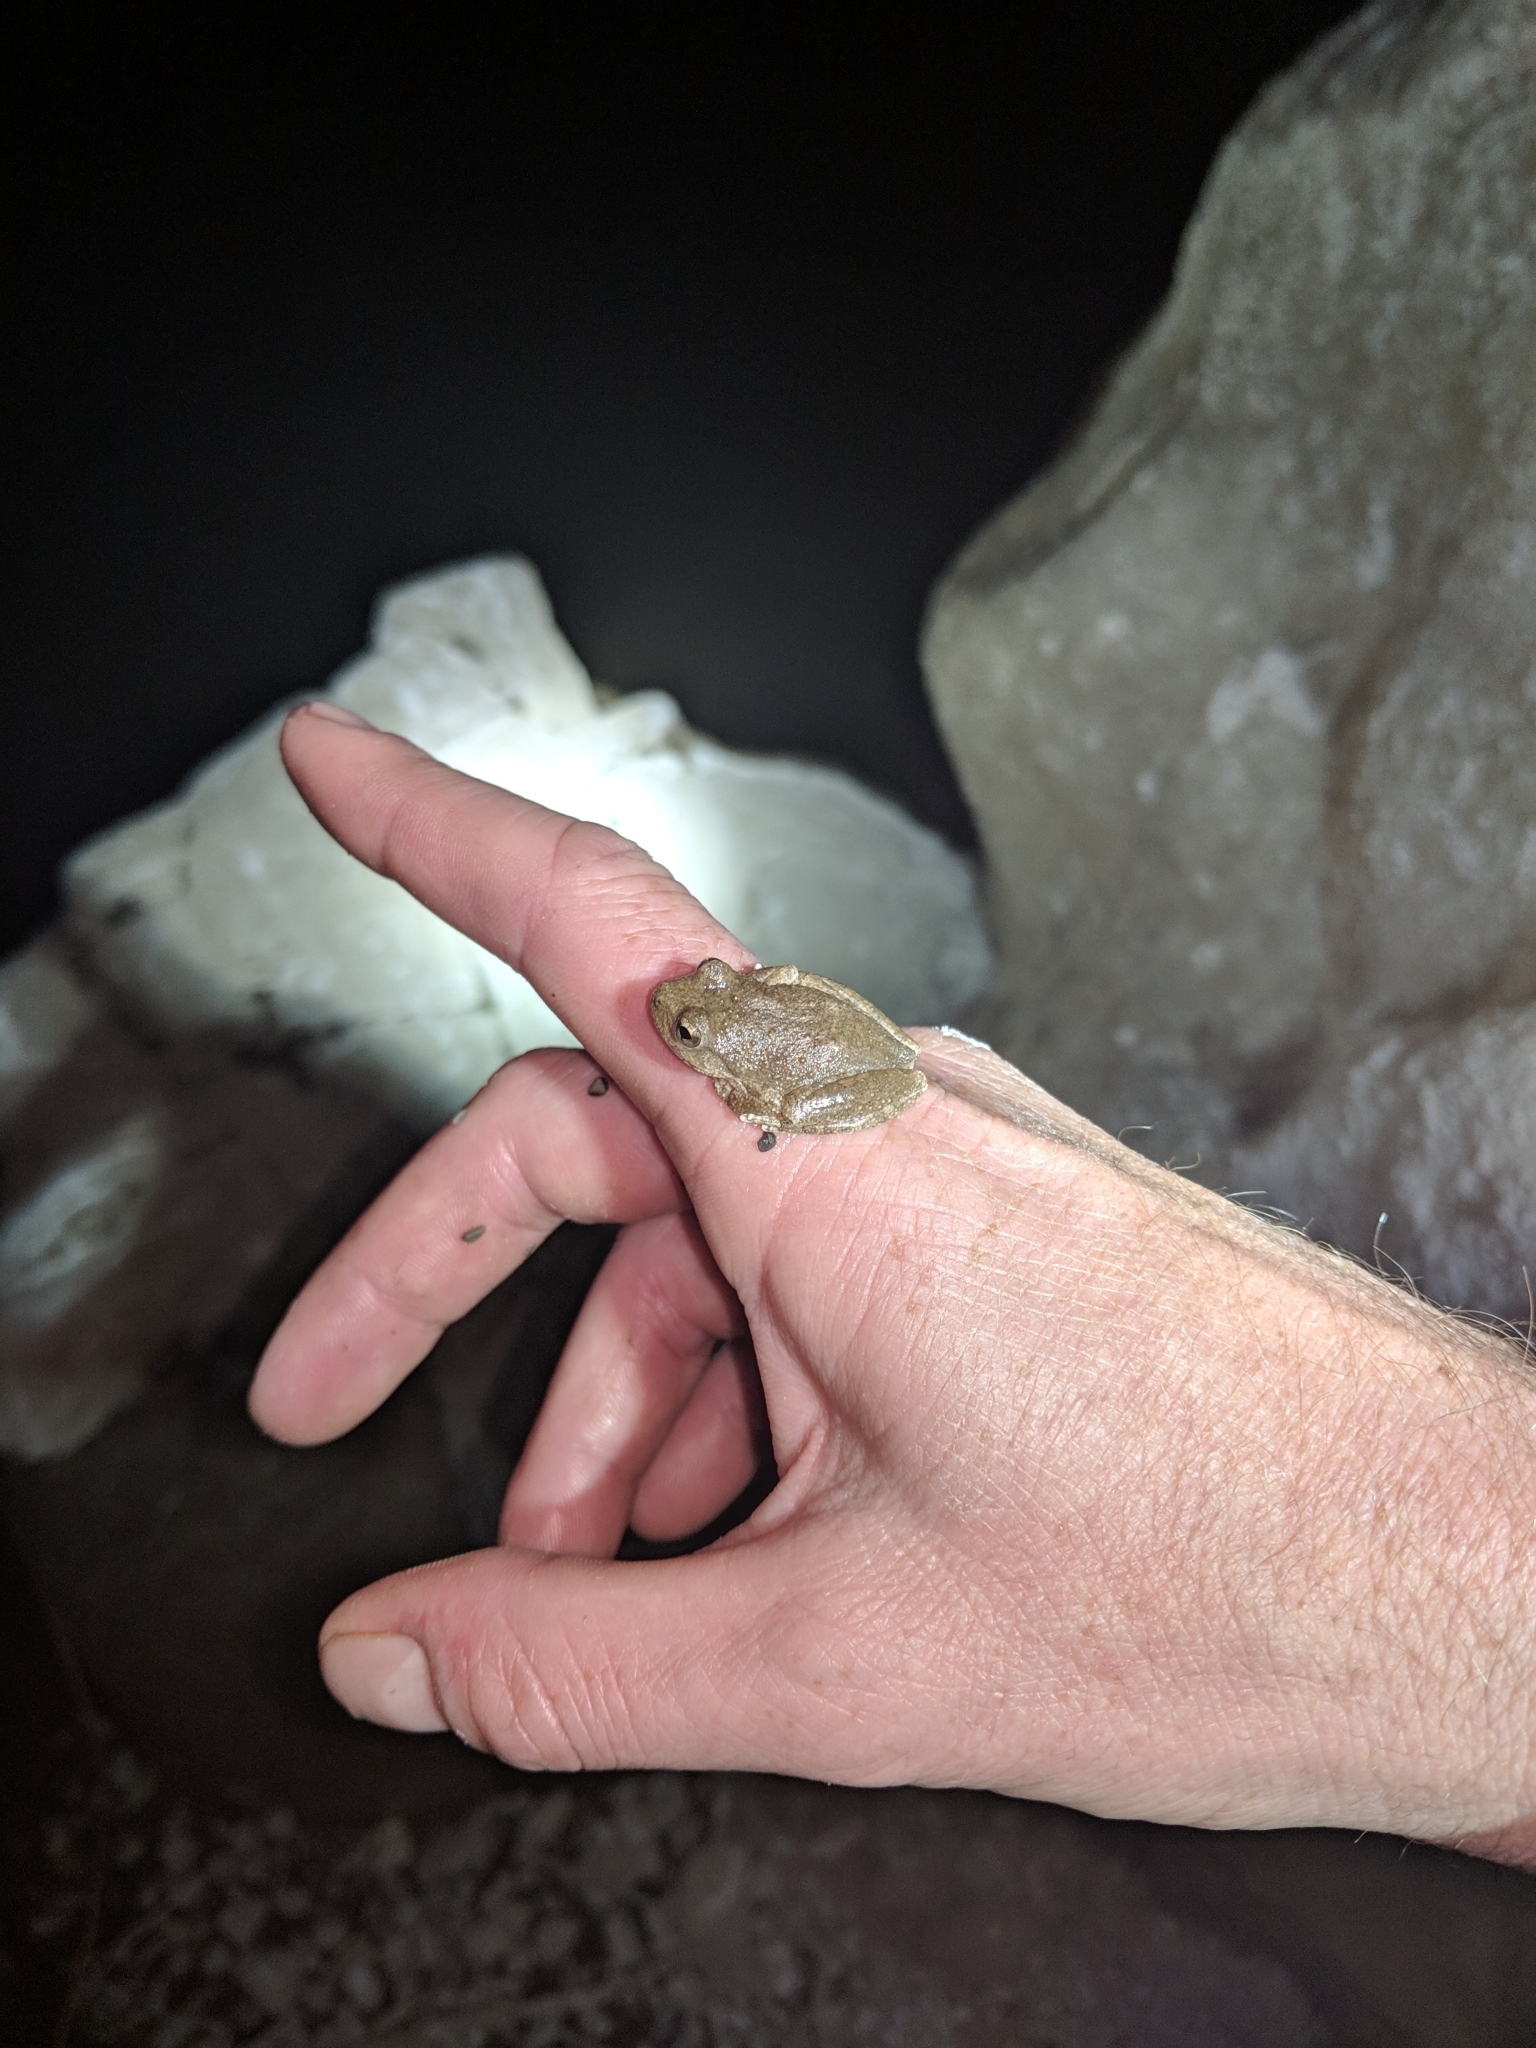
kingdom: Animalia
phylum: Chordata
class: Amphibia
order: Anura
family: Hylidae
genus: Pseudacris
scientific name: Pseudacris cadaverina
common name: California chorus frog
